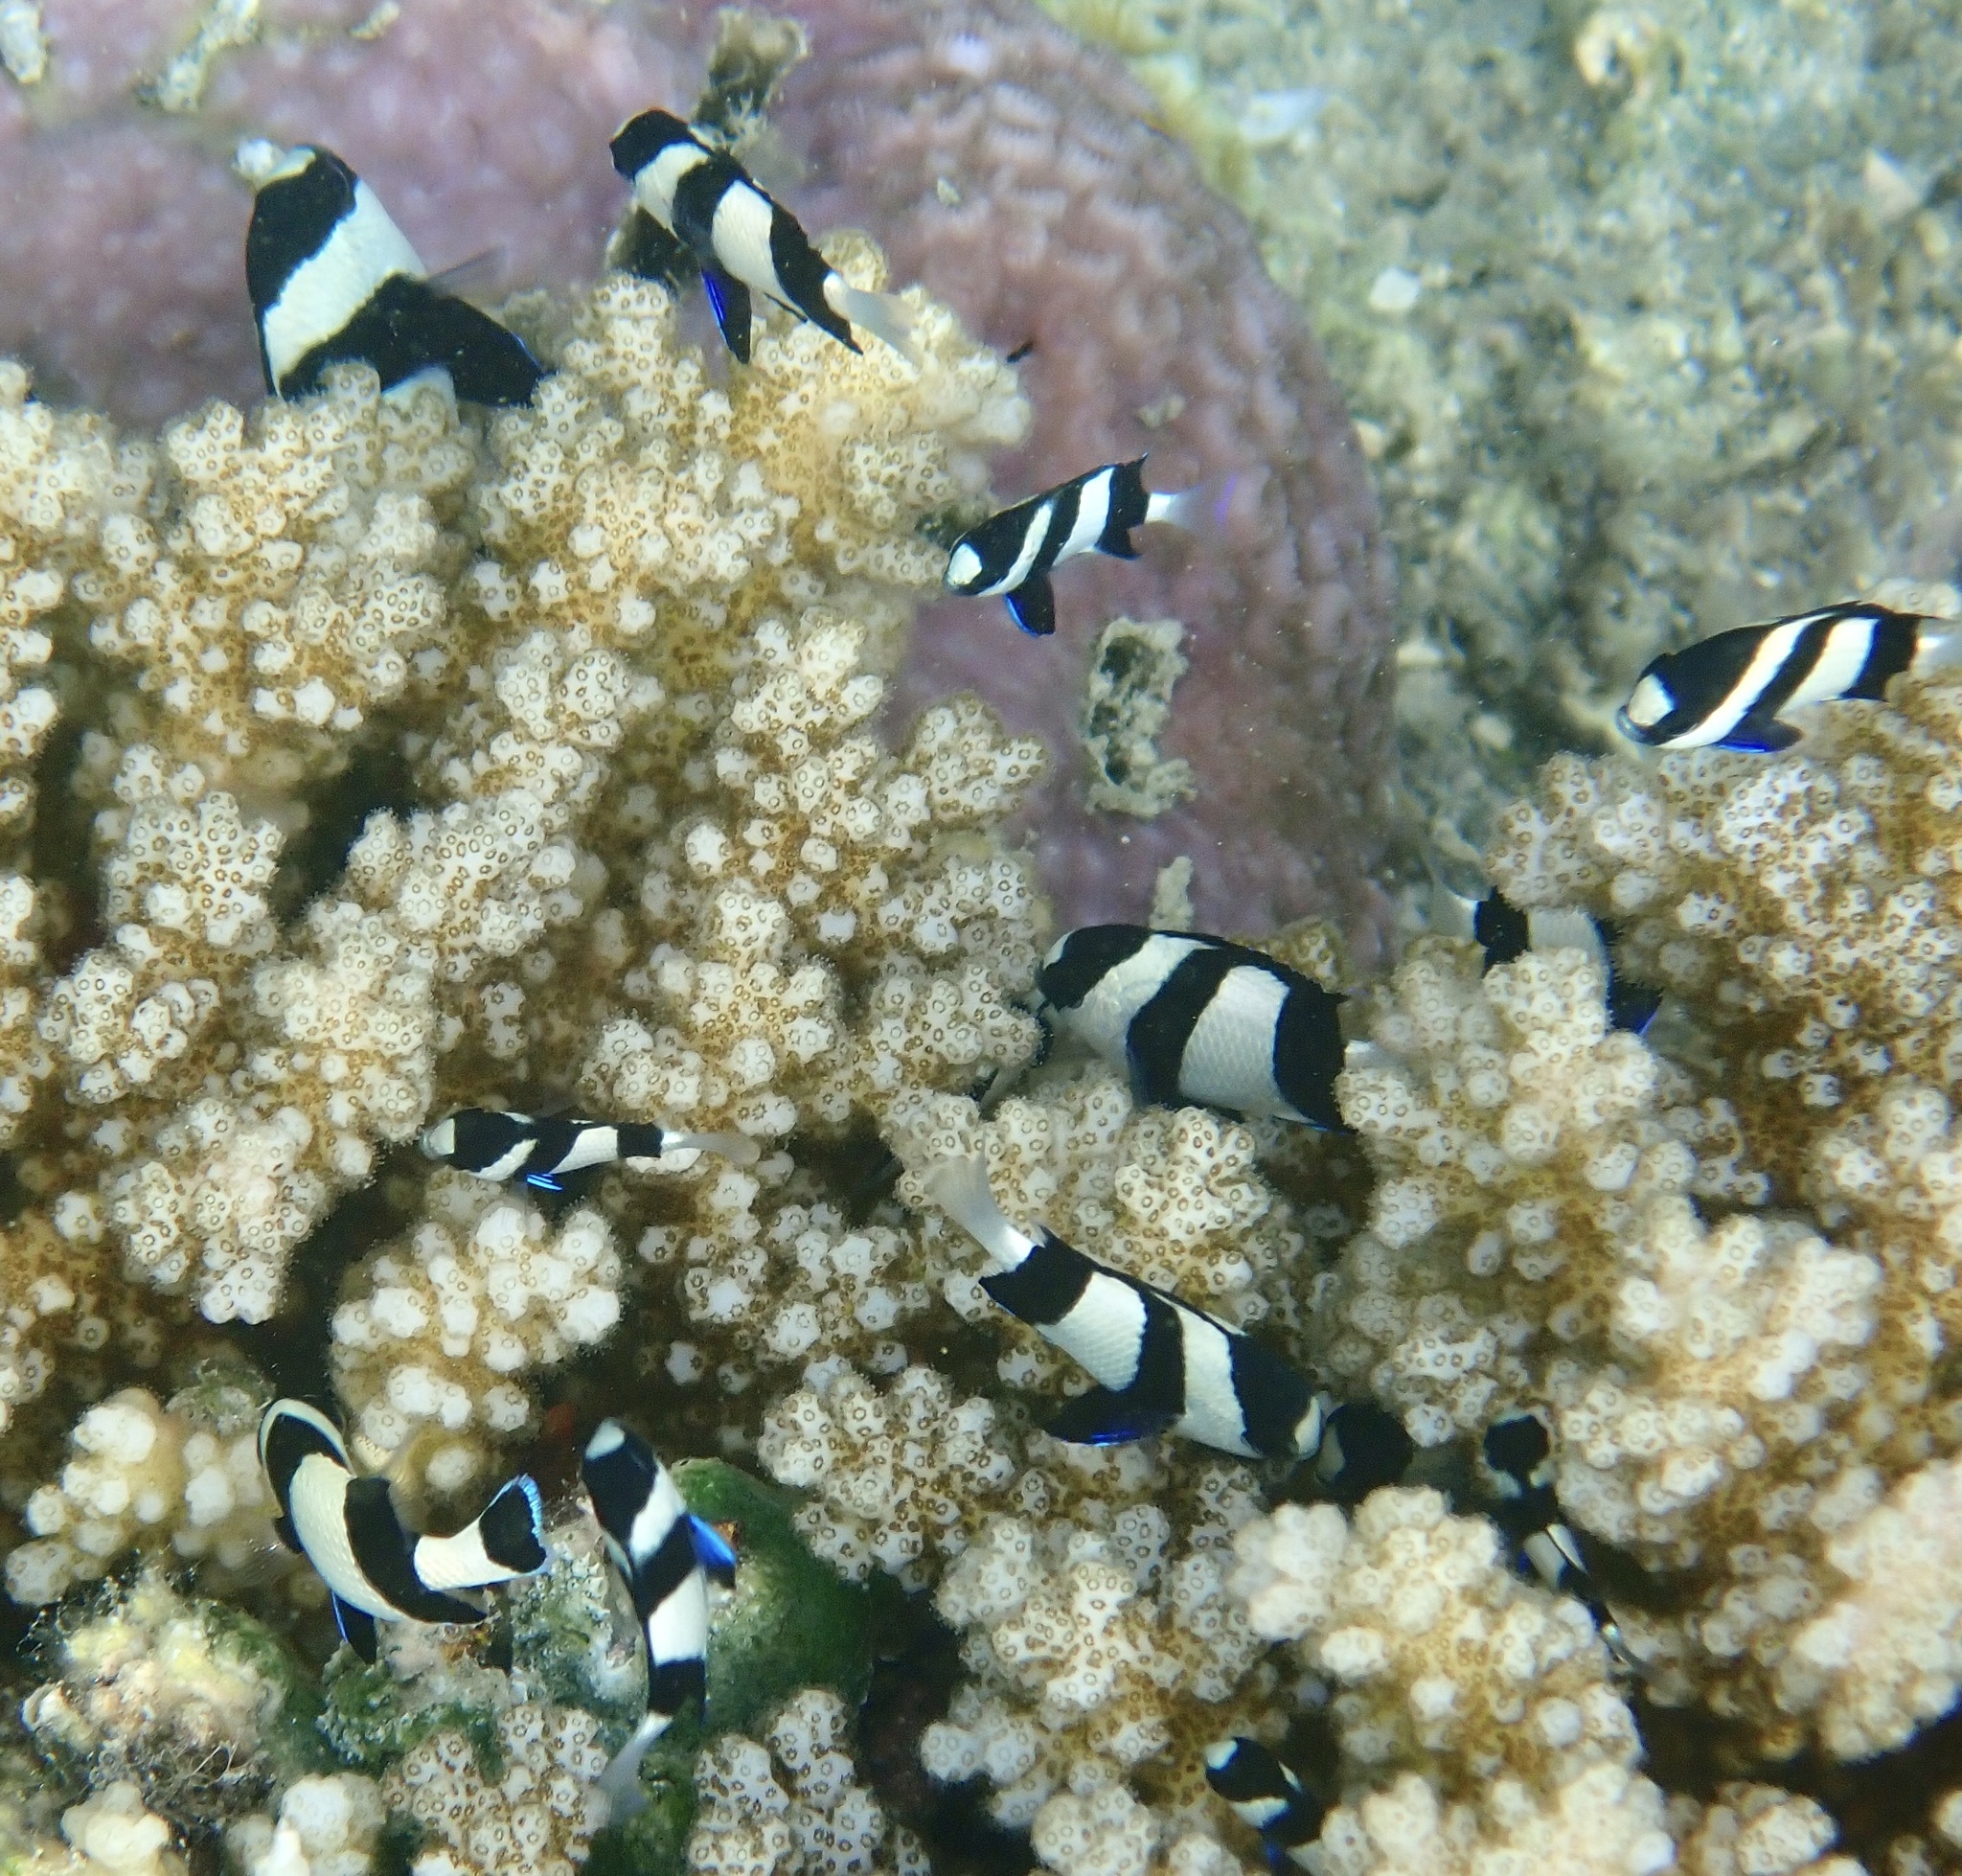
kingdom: Animalia
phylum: Chordata
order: Perciformes
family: Pomacentridae
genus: Dascyllus
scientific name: Dascyllus melanurus
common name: Black-tail dascyllus
